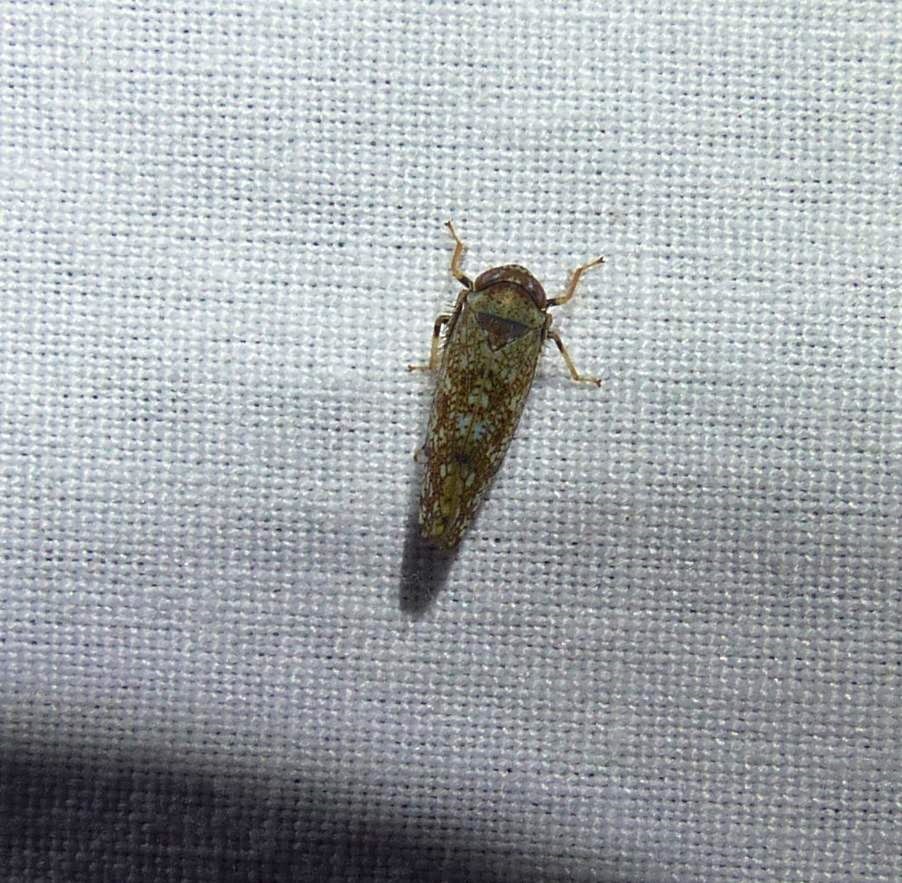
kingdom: Animalia
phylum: Arthropoda
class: Insecta
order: Hemiptera
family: Cicadellidae
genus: Orientus
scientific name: Orientus ishidae
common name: Japanese leafhopper
